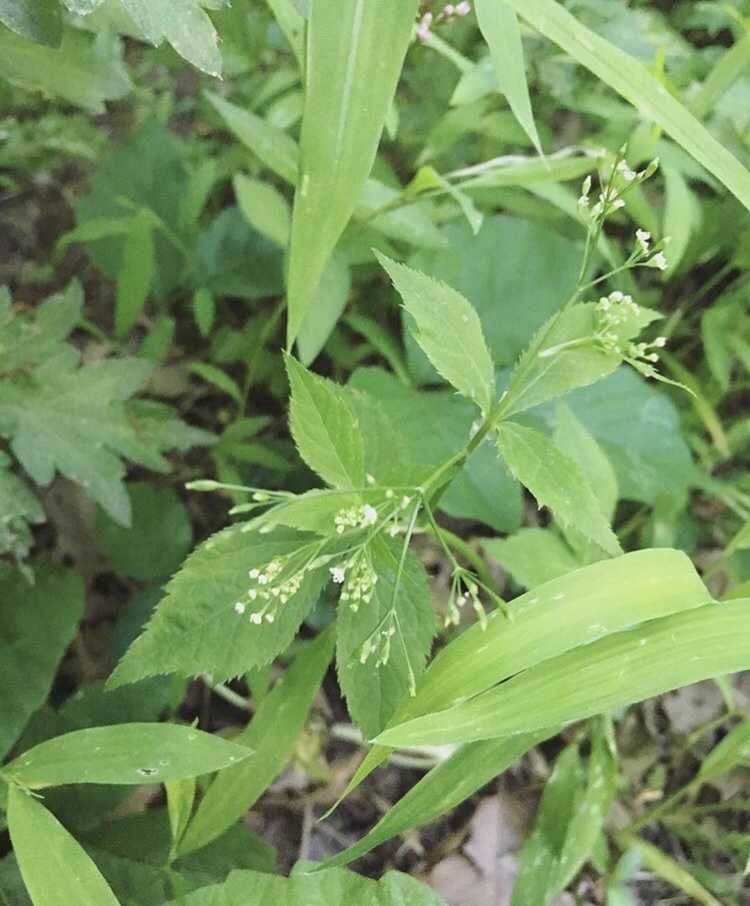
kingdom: Plantae
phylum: Tracheophyta
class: Magnoliopsida
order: Apiales
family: Apiaceae
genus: Cryptotaenia
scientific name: Cryptotaenia canadensis
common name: Honewort
